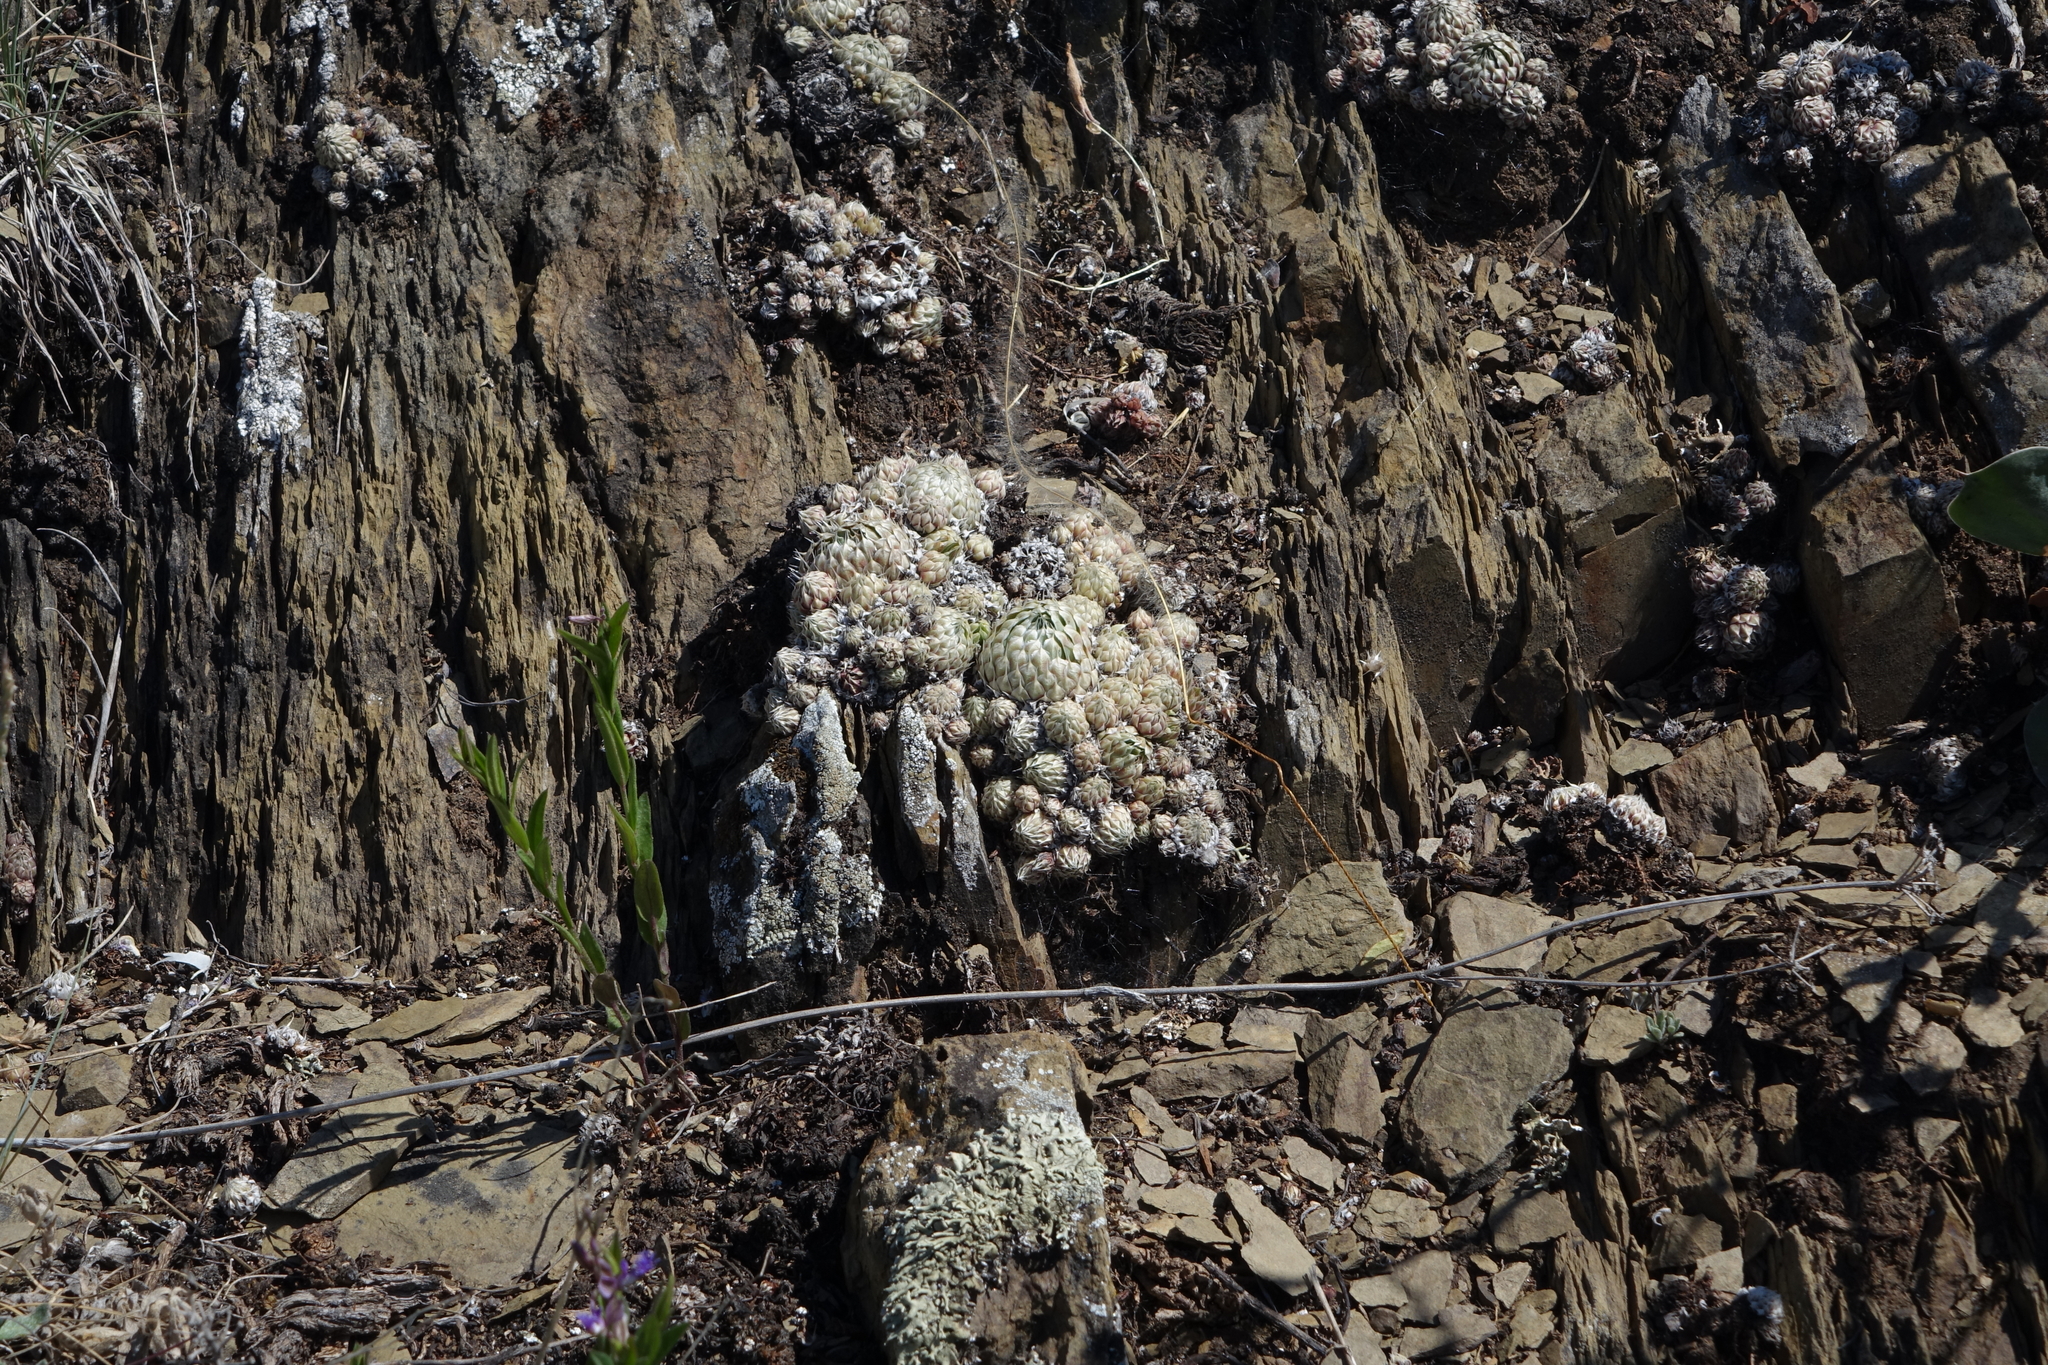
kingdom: Plantae
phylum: Tracheophyta
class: Magnoliopsida
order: Saxifragales
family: Crassulaceae
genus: Orostachys
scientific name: Orostachys spinosa
